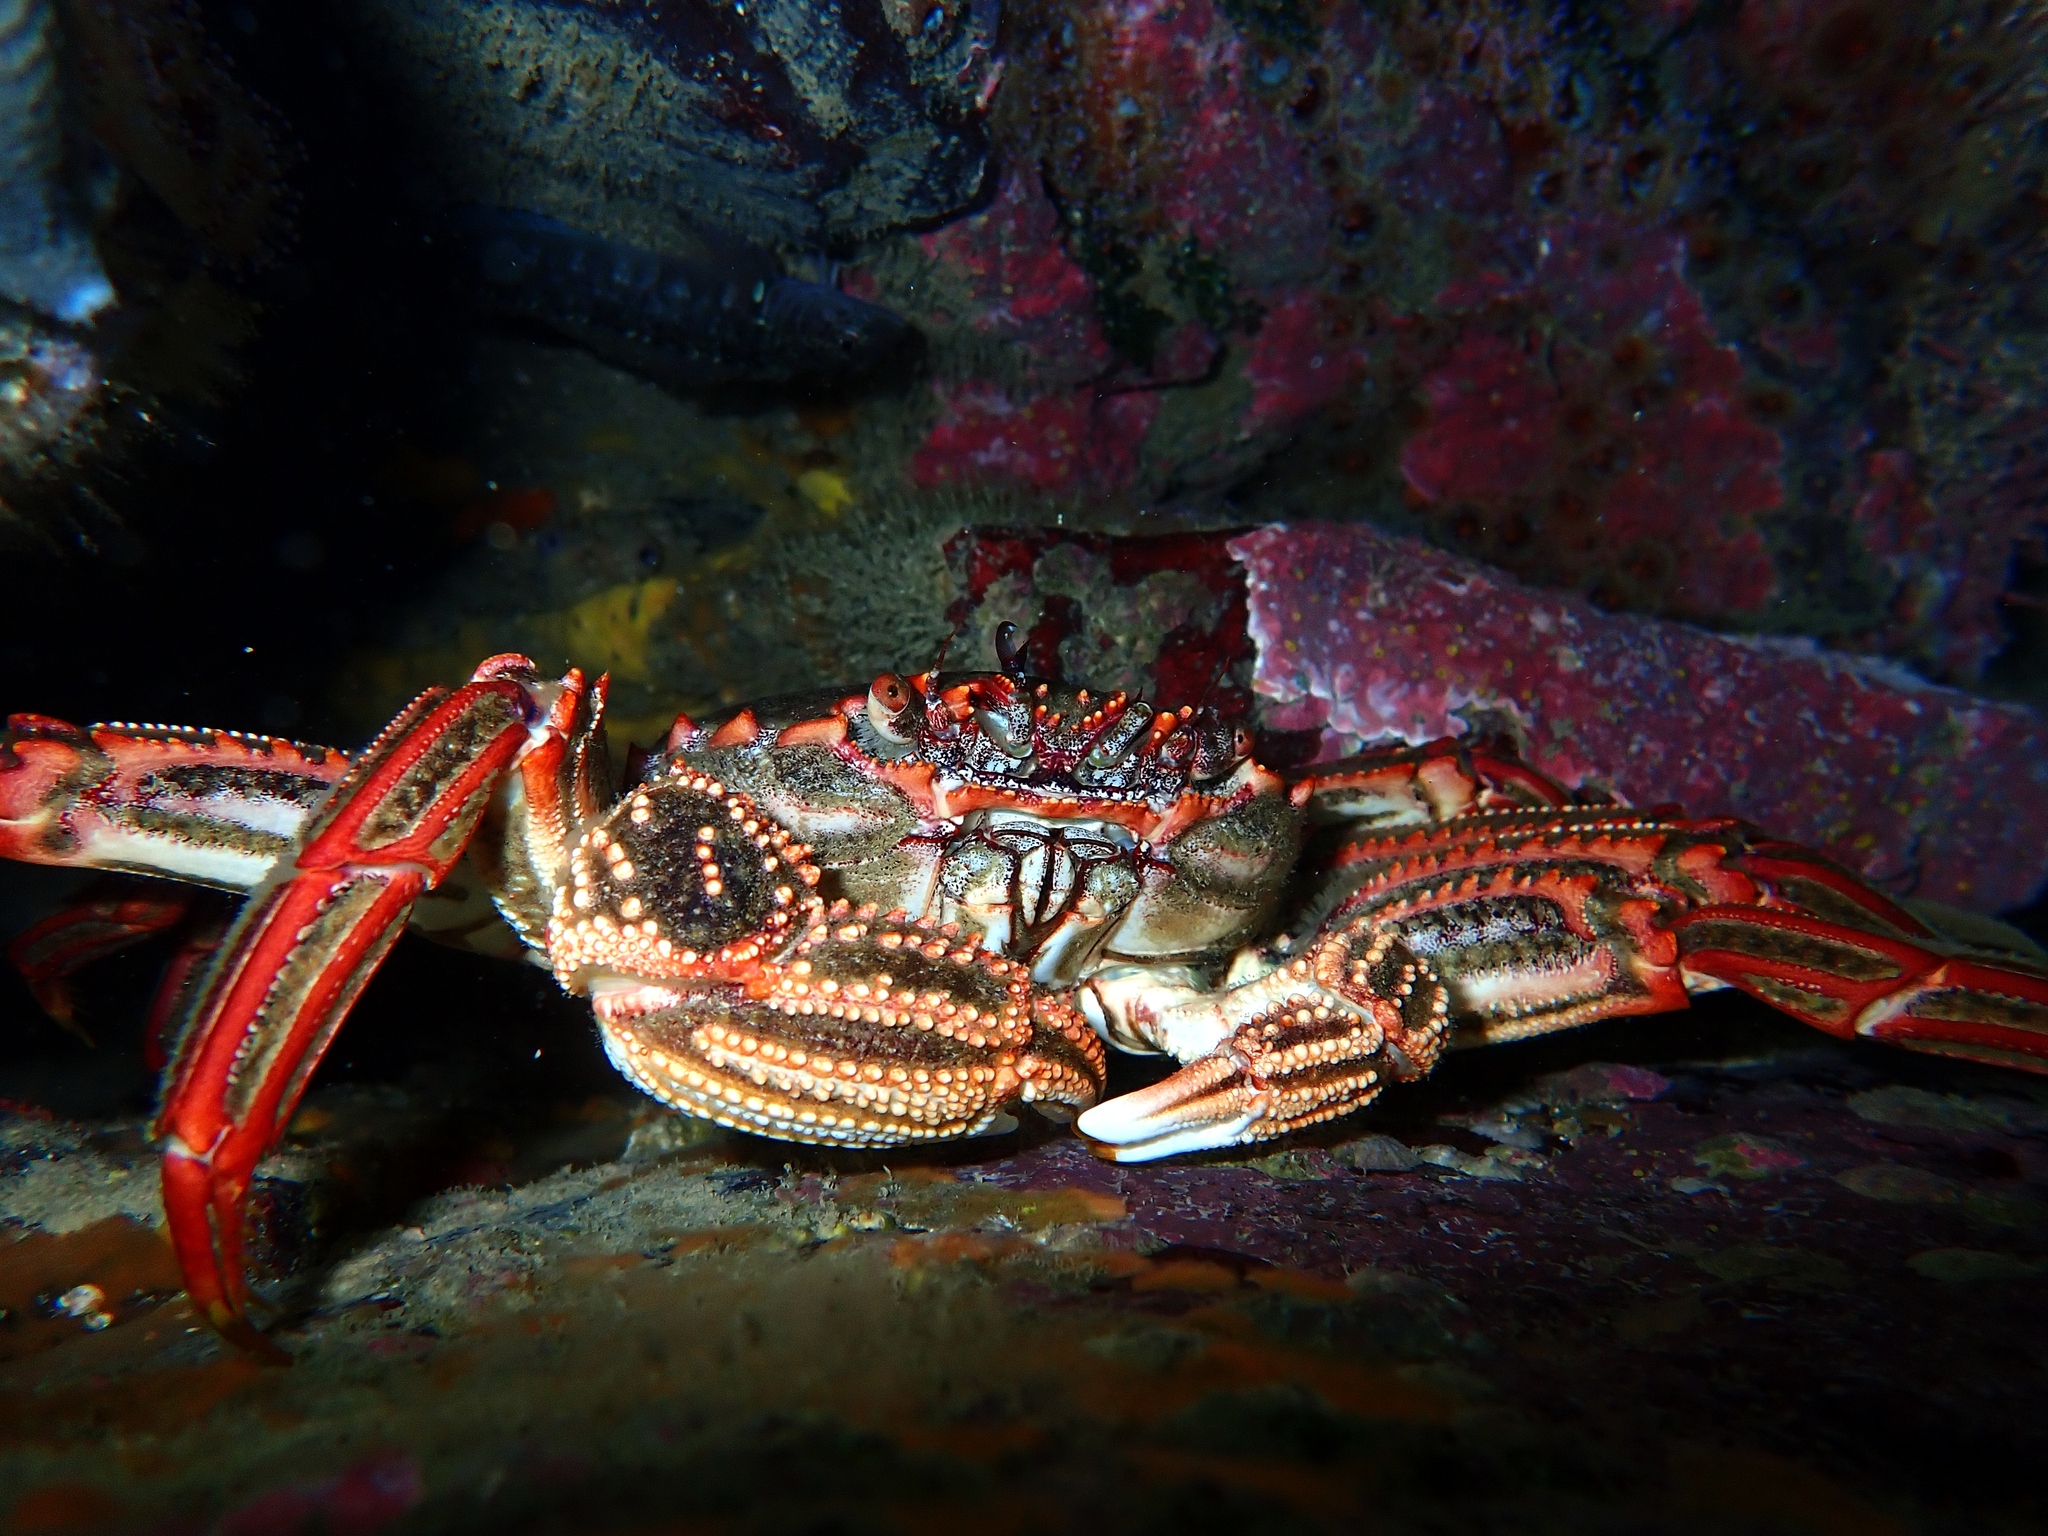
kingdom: Animalia
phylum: Arthropoda
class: Malacostraca
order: Decapoda
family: Plagusiidae
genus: Guinusia
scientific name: Guinusia chabrus
